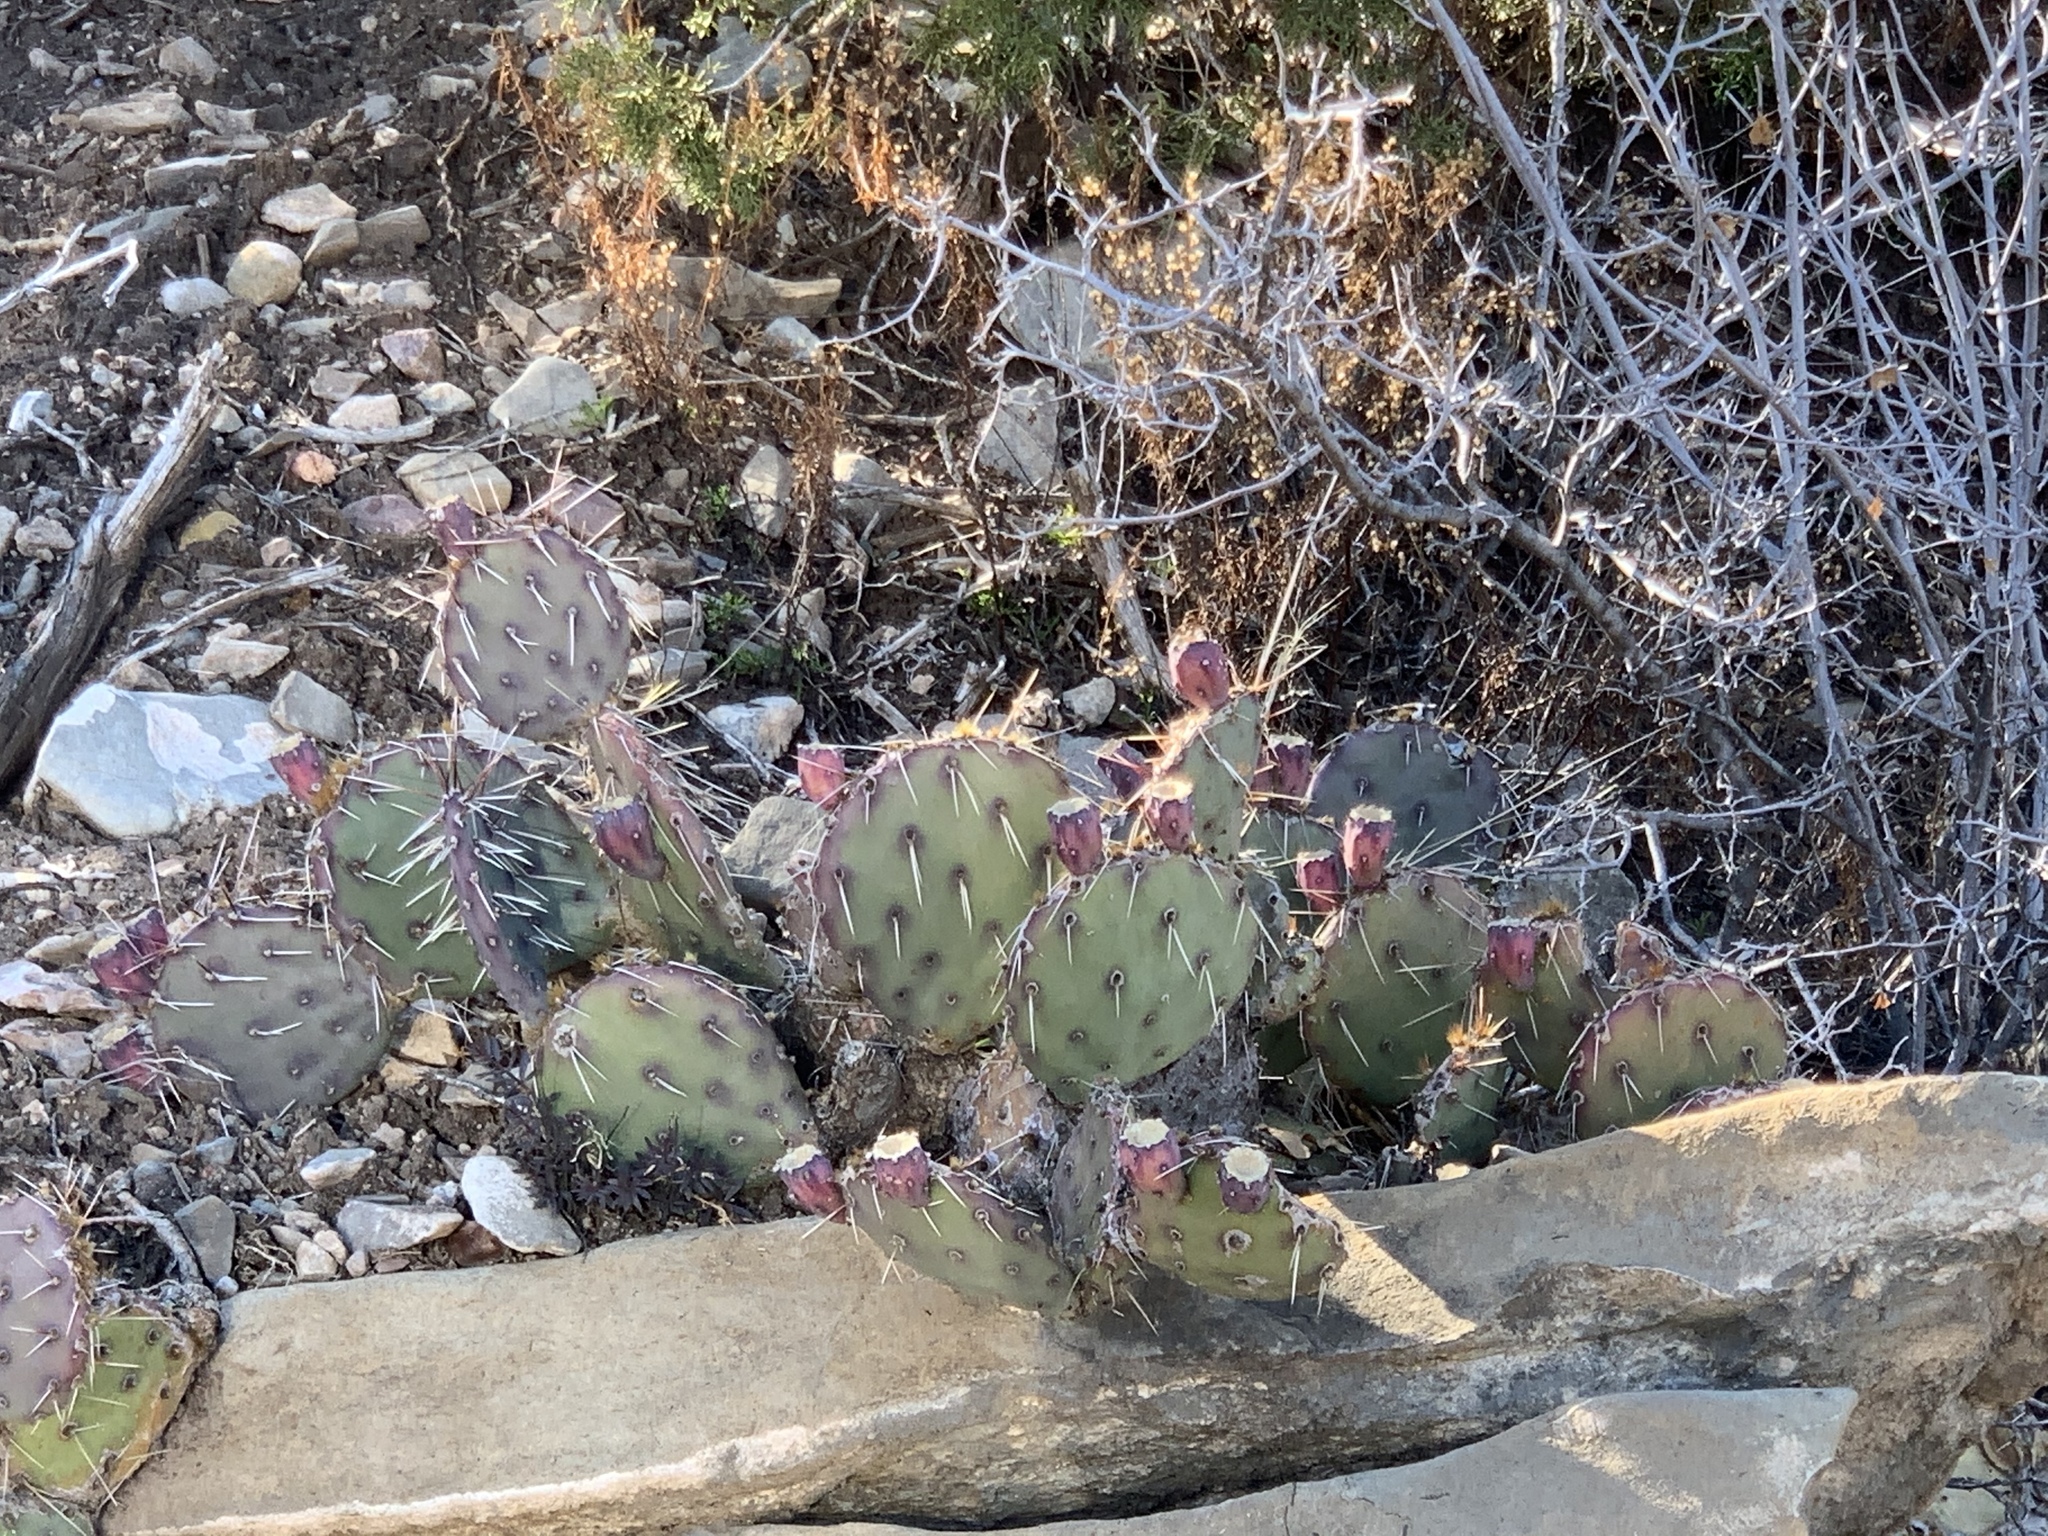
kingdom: Plantae
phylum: Tracheophyta
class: Magnoliopsida
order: Caryophyllales
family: Cactaceae
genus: Opuntia
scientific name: Opuntia phaeacantha
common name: New mexico prickly-pear
